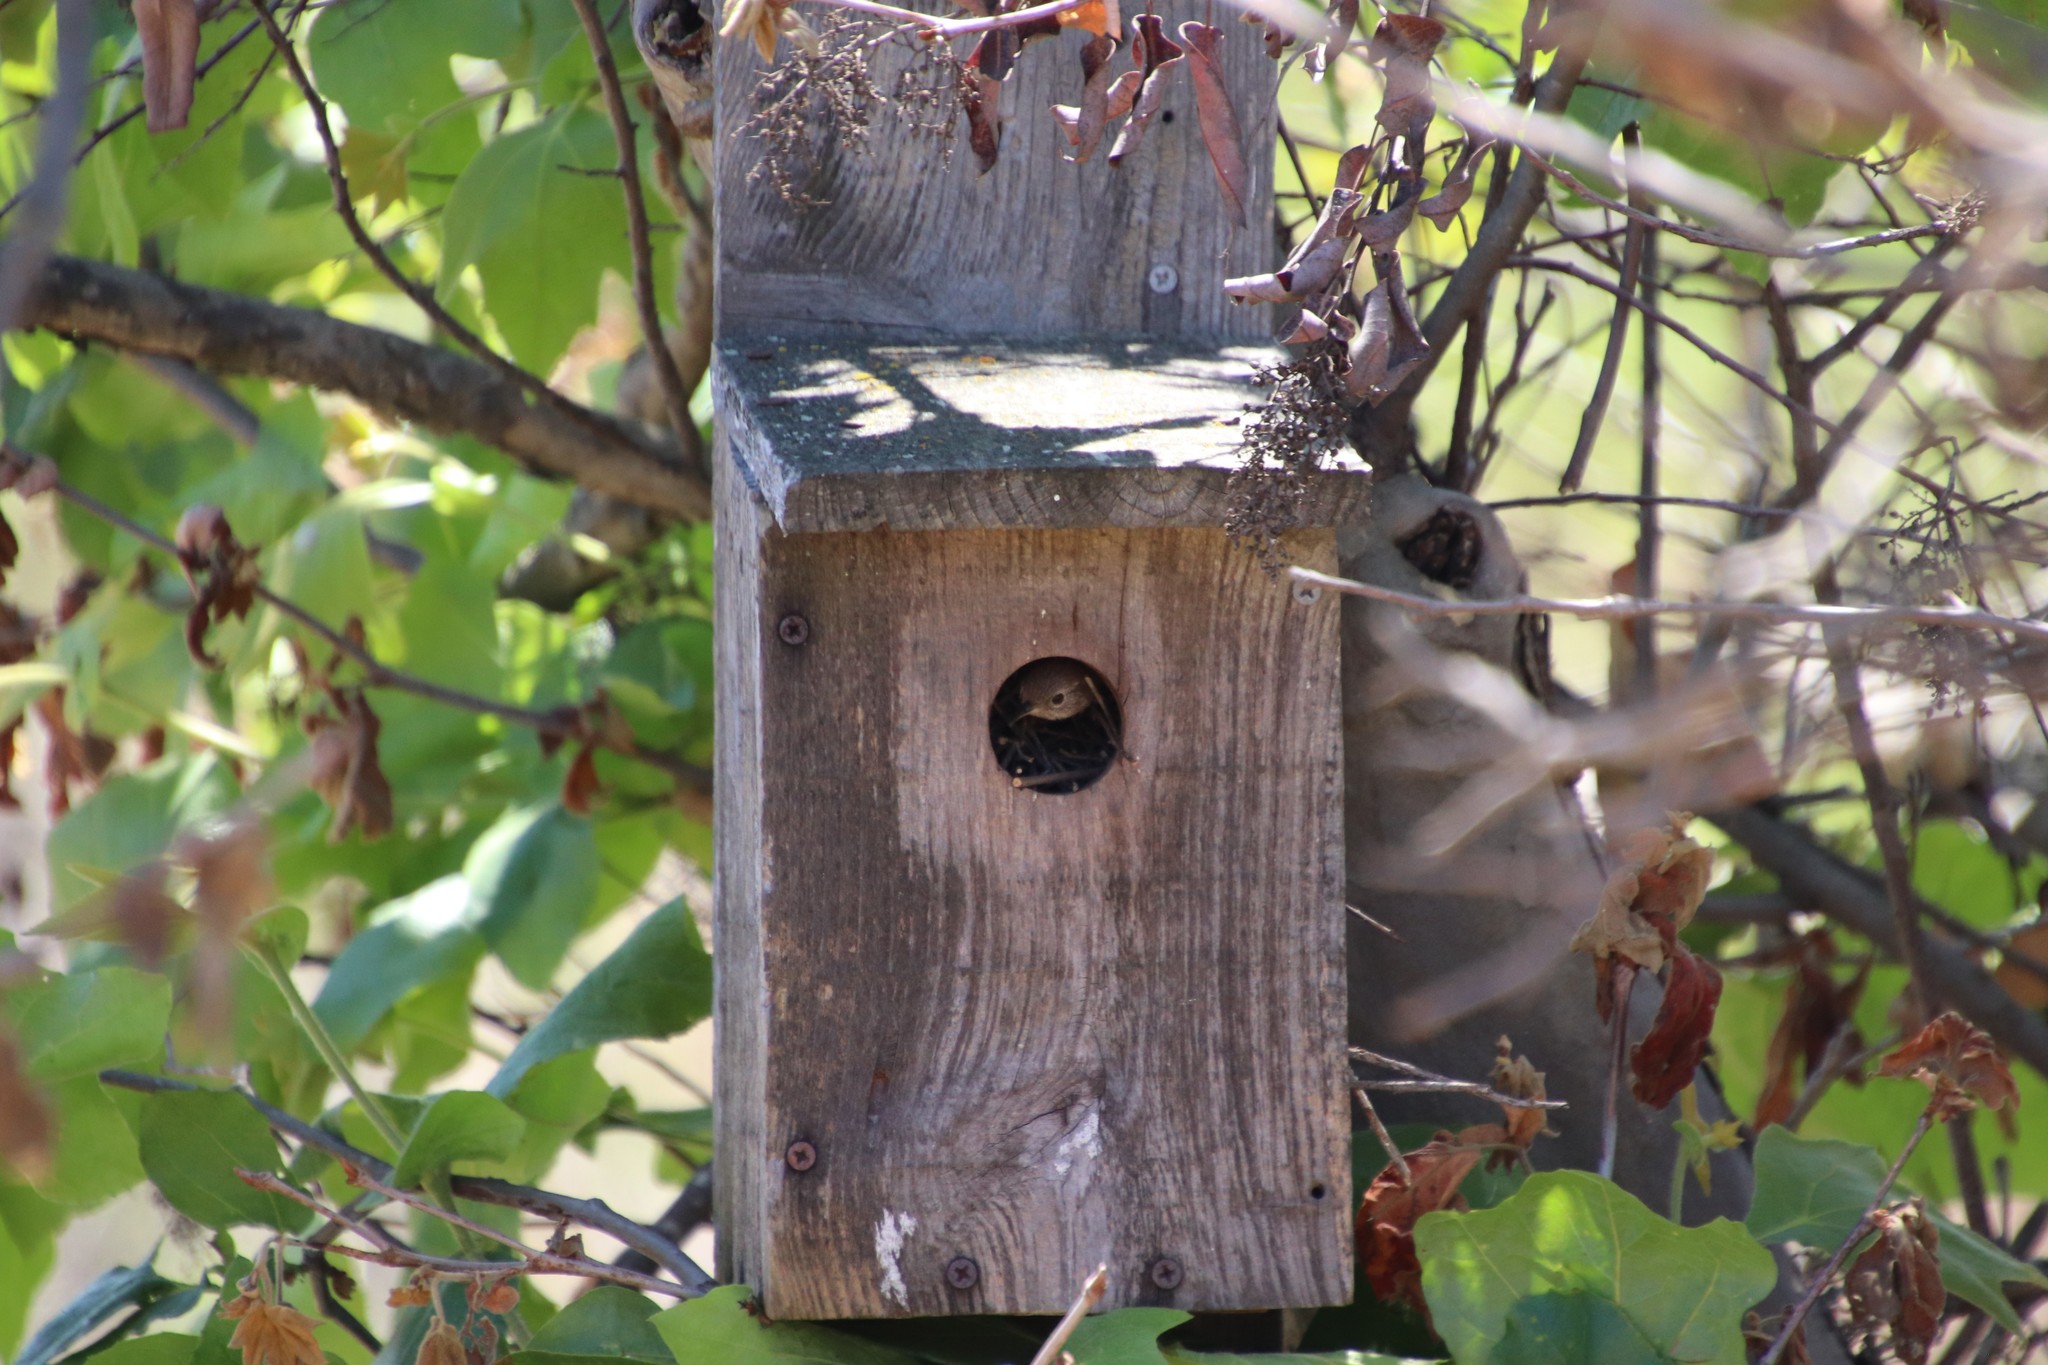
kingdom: Animalia
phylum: Chordata
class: Aves
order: Passeriformes
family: Troglodytidae
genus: Troglodytes
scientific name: Troglodytes aedon
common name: House wren
